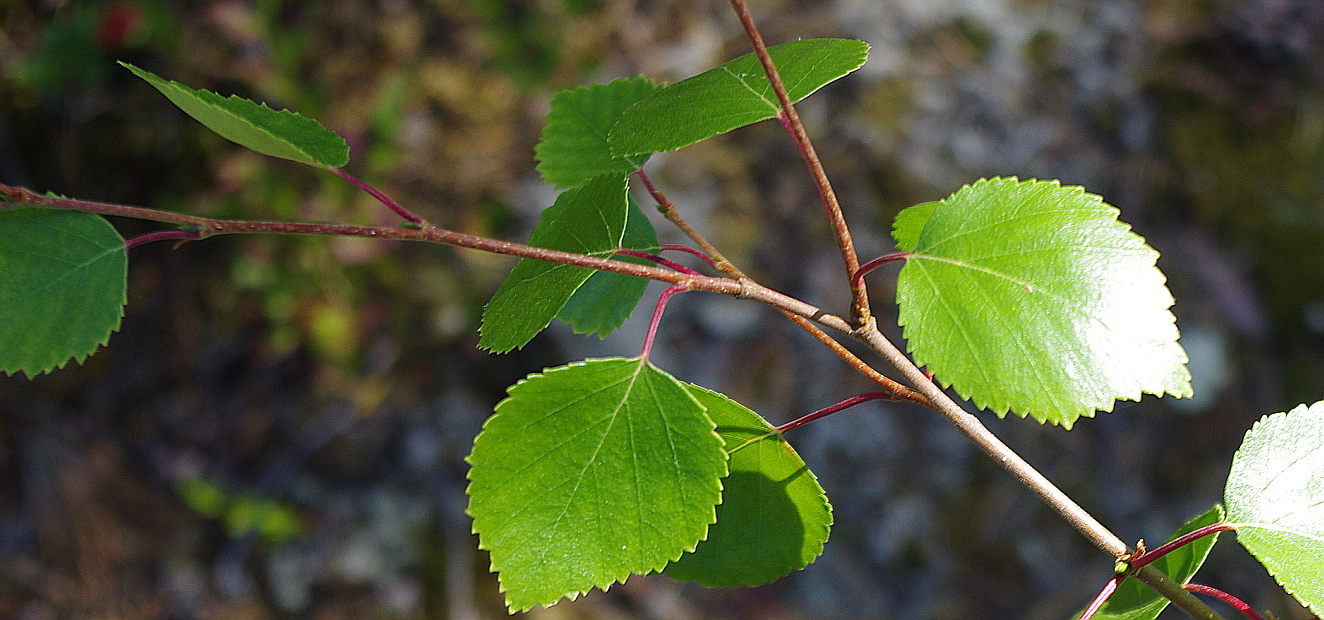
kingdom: Plantae
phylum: Tracheophyta
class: Magnoliopsida
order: Fagales
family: Betulaceae
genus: Betula
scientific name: Betula pendula
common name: Silver birch
